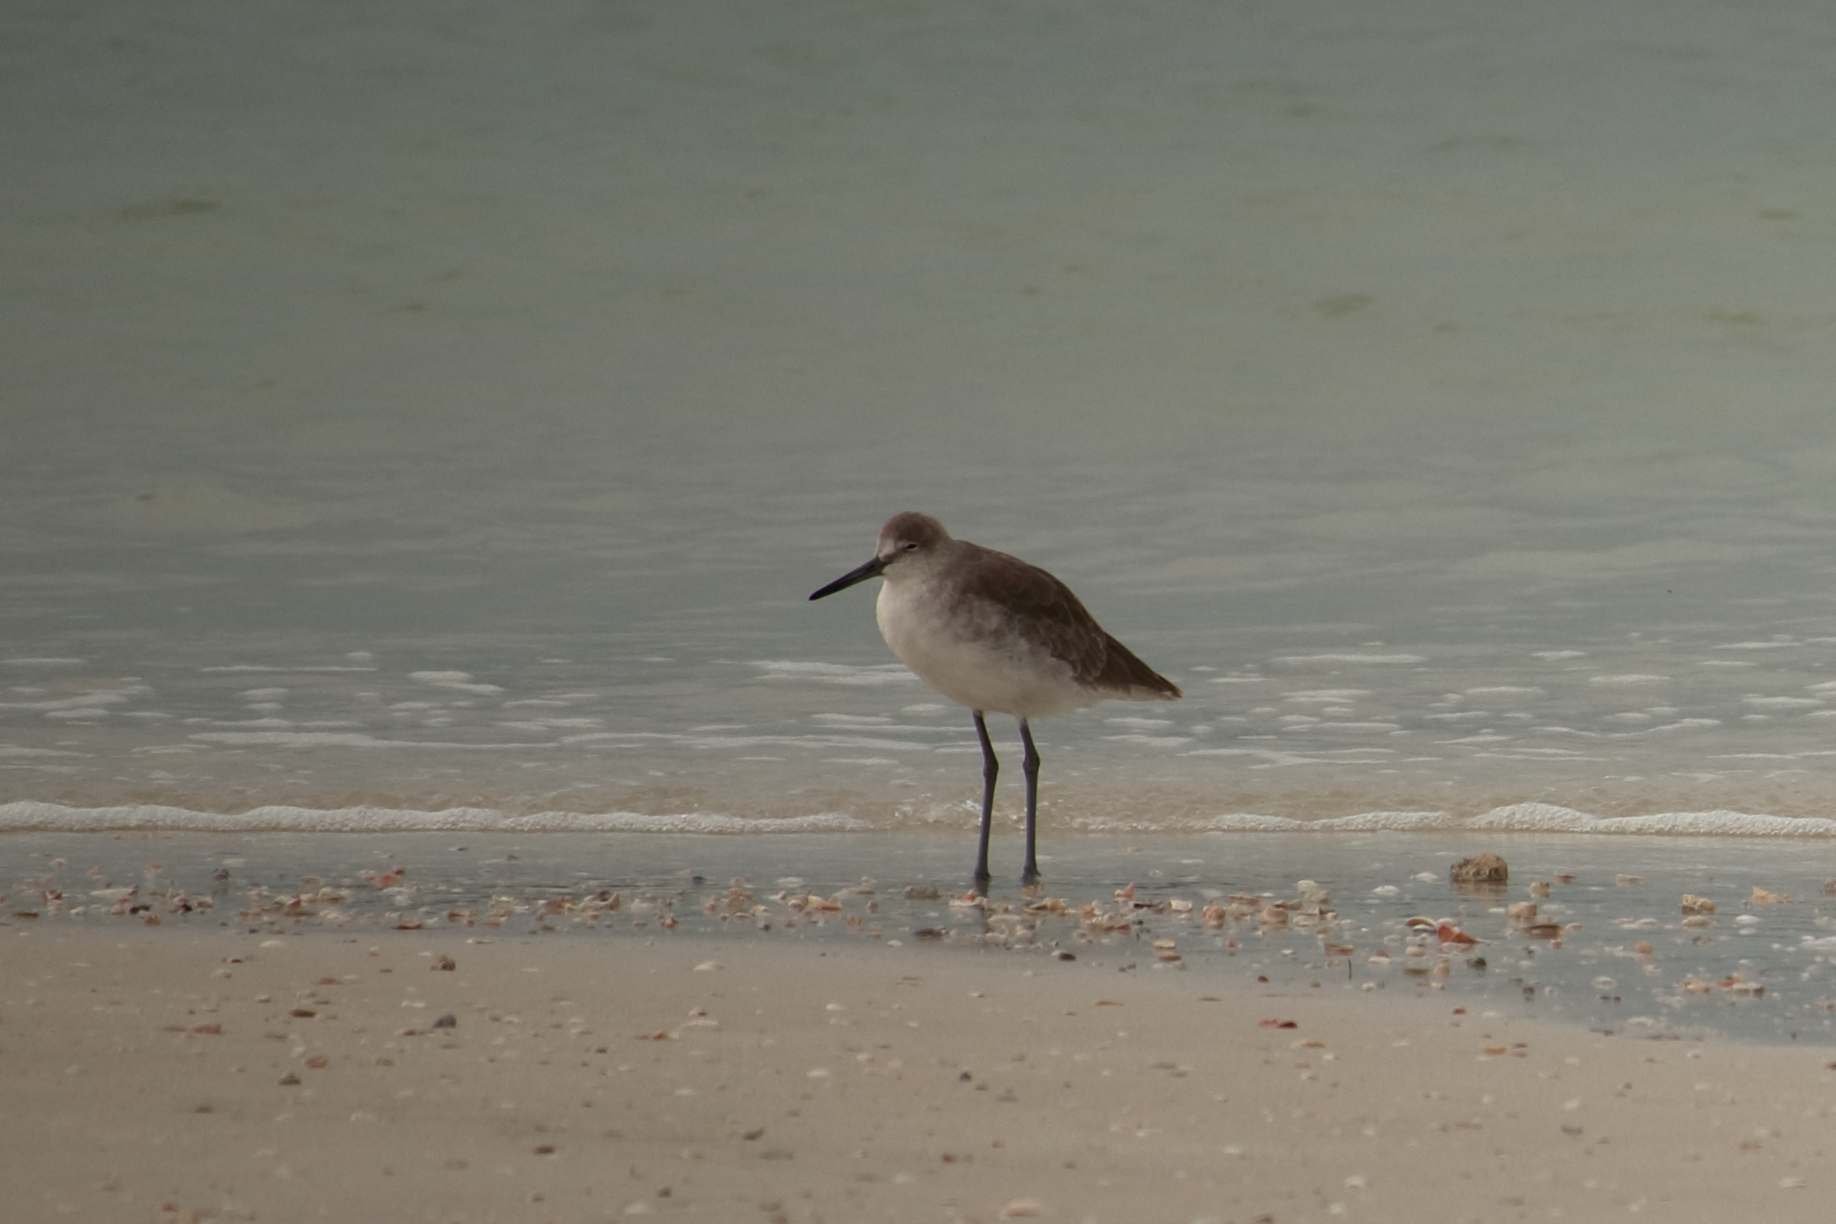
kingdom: Animalia
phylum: Chordata
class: Aves
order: Charadriiformes
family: Scolopacidae
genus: Tringa
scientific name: Tringa semipalmata
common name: Willet
